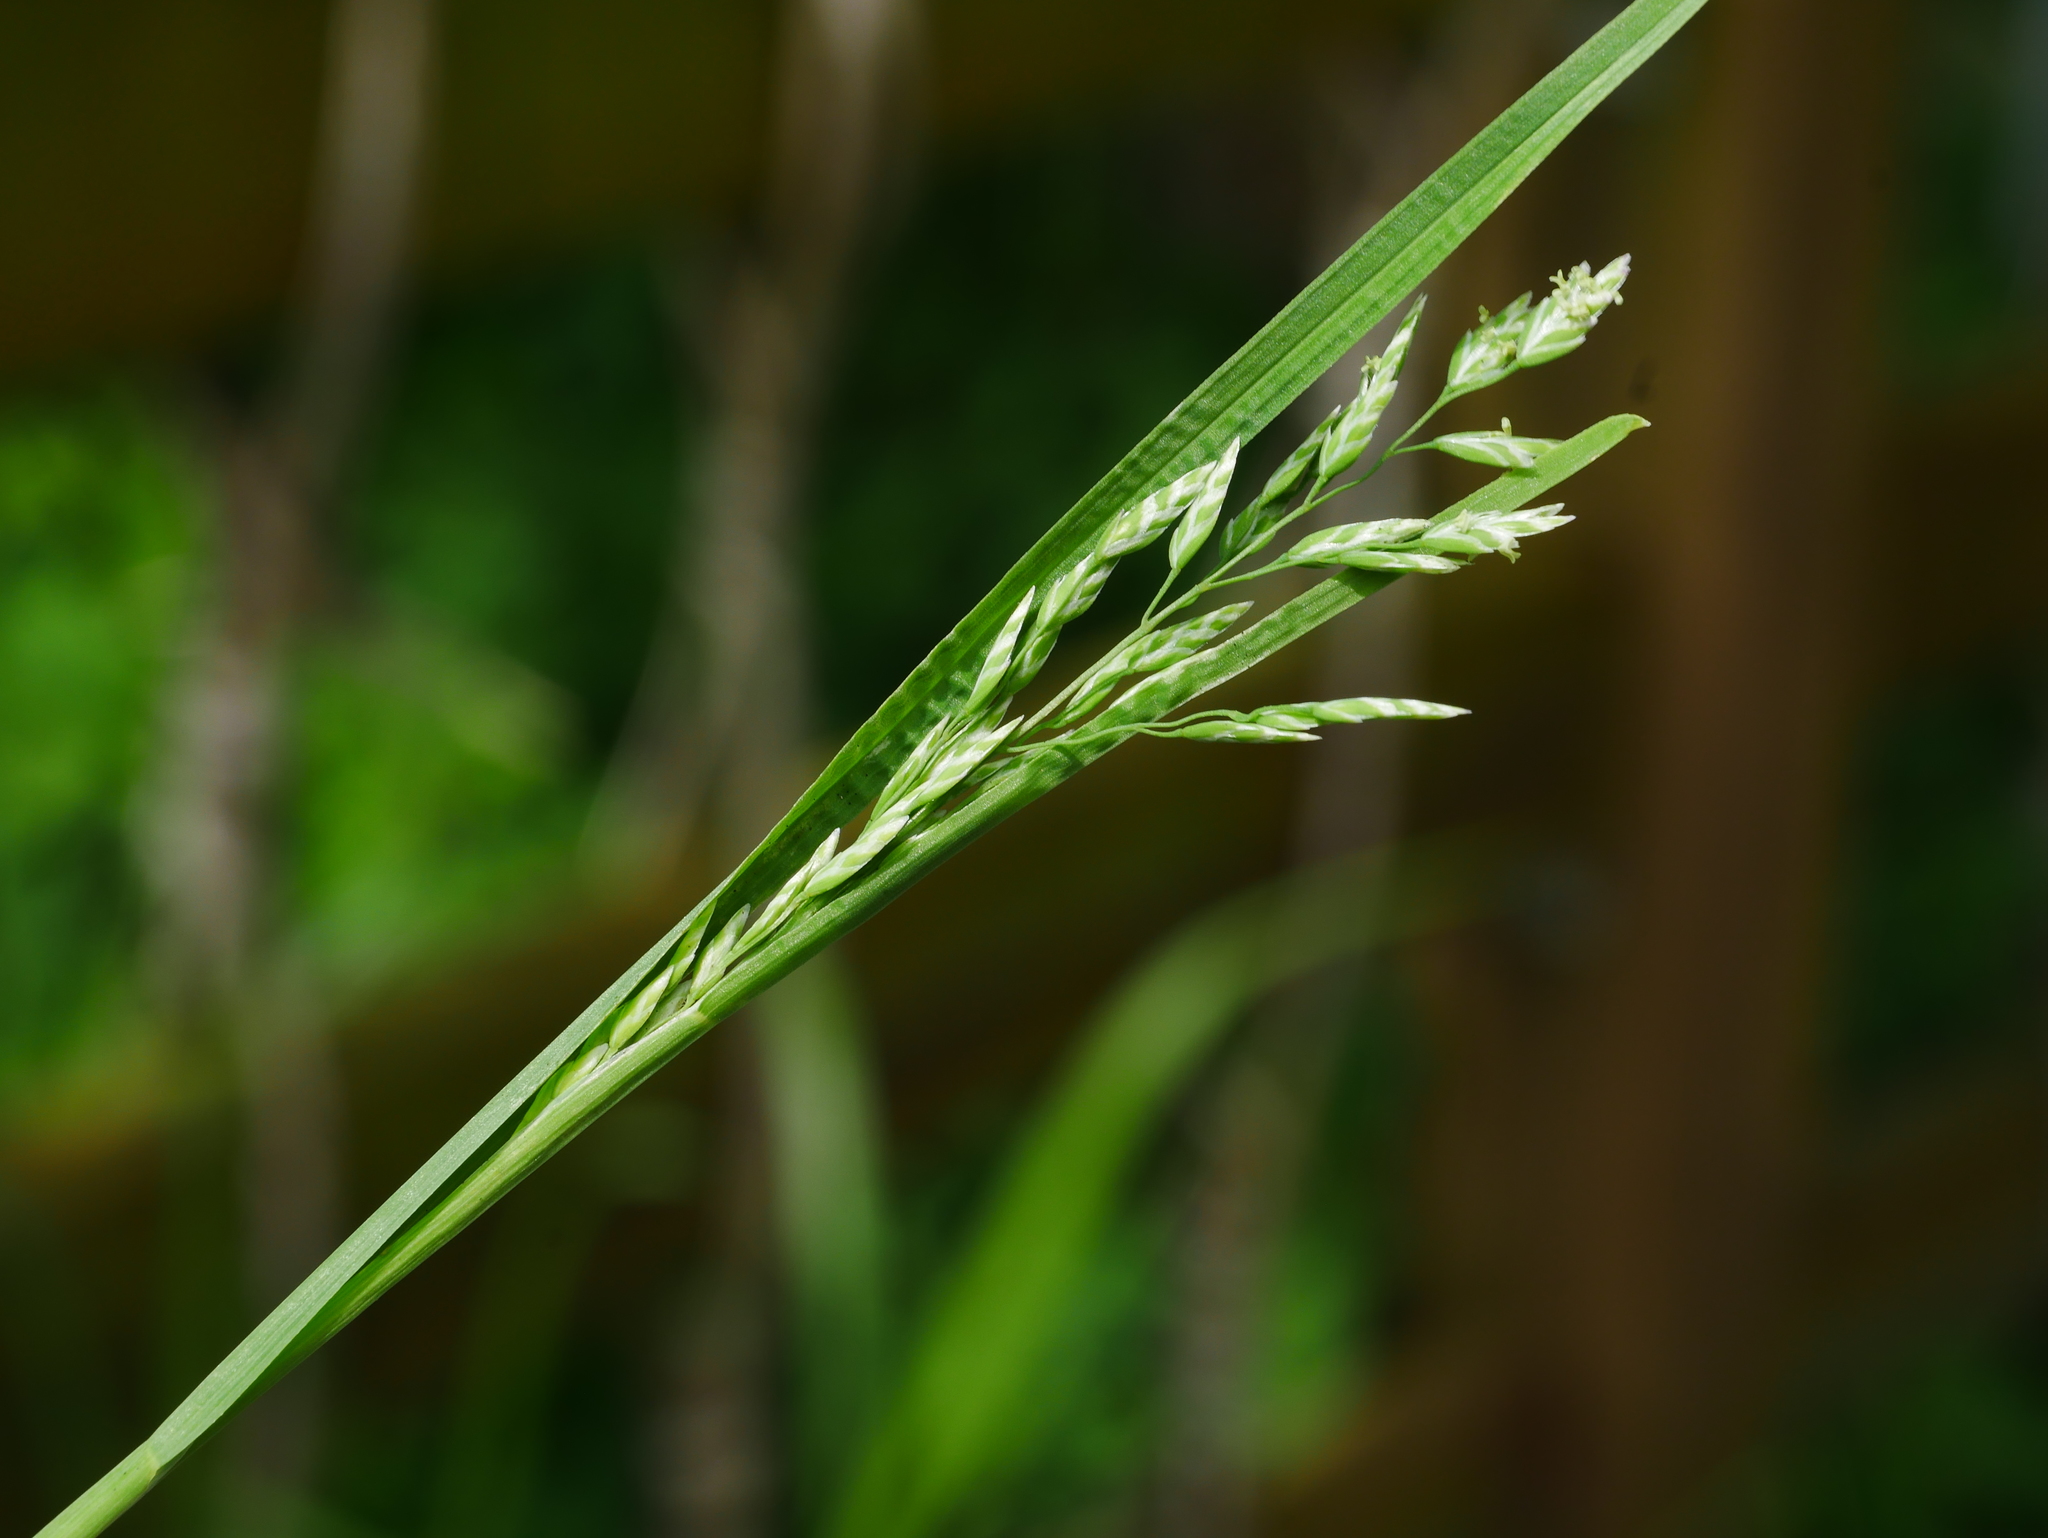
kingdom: Plantae
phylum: Tracheophyta
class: Liliopsida
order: Poales
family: Poaceae
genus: Poa
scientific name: Poa pratensis
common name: Kentucky bluegrass
